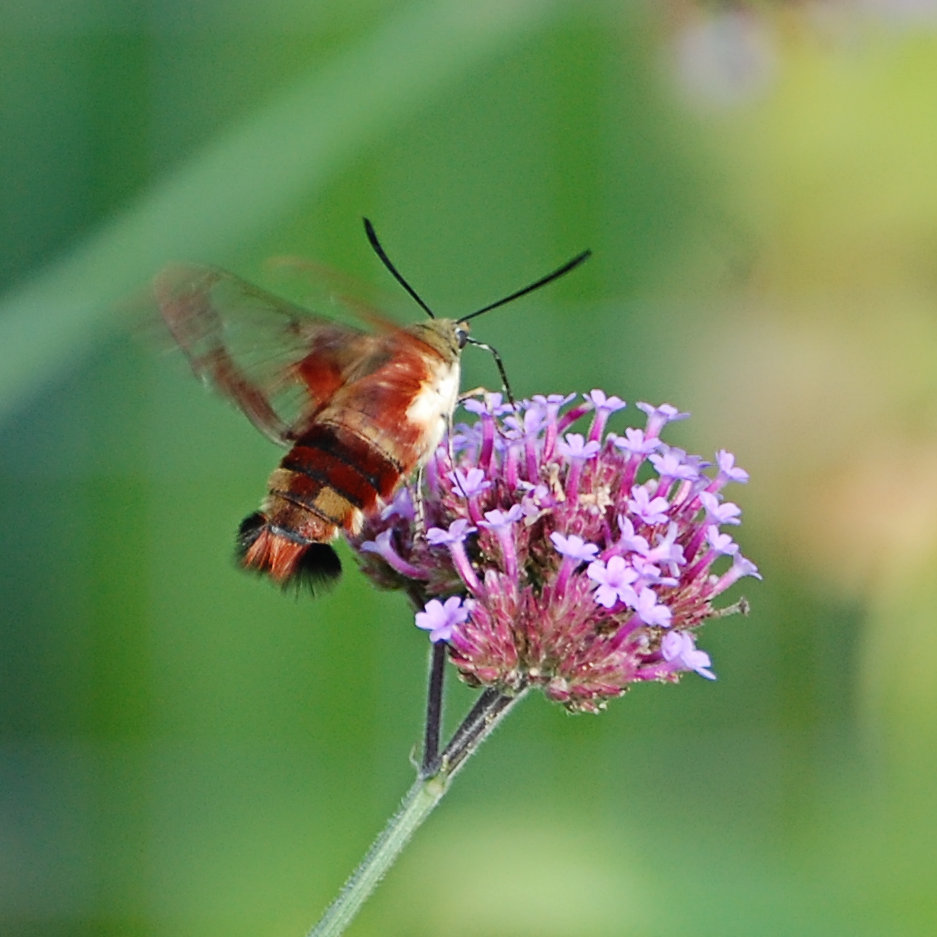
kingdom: Animalia
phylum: Arthropoda
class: Insecta
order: Lepidoptera
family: Sphingidae
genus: Hemaris
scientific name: Hemaris thysbe
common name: Common clear-wing
